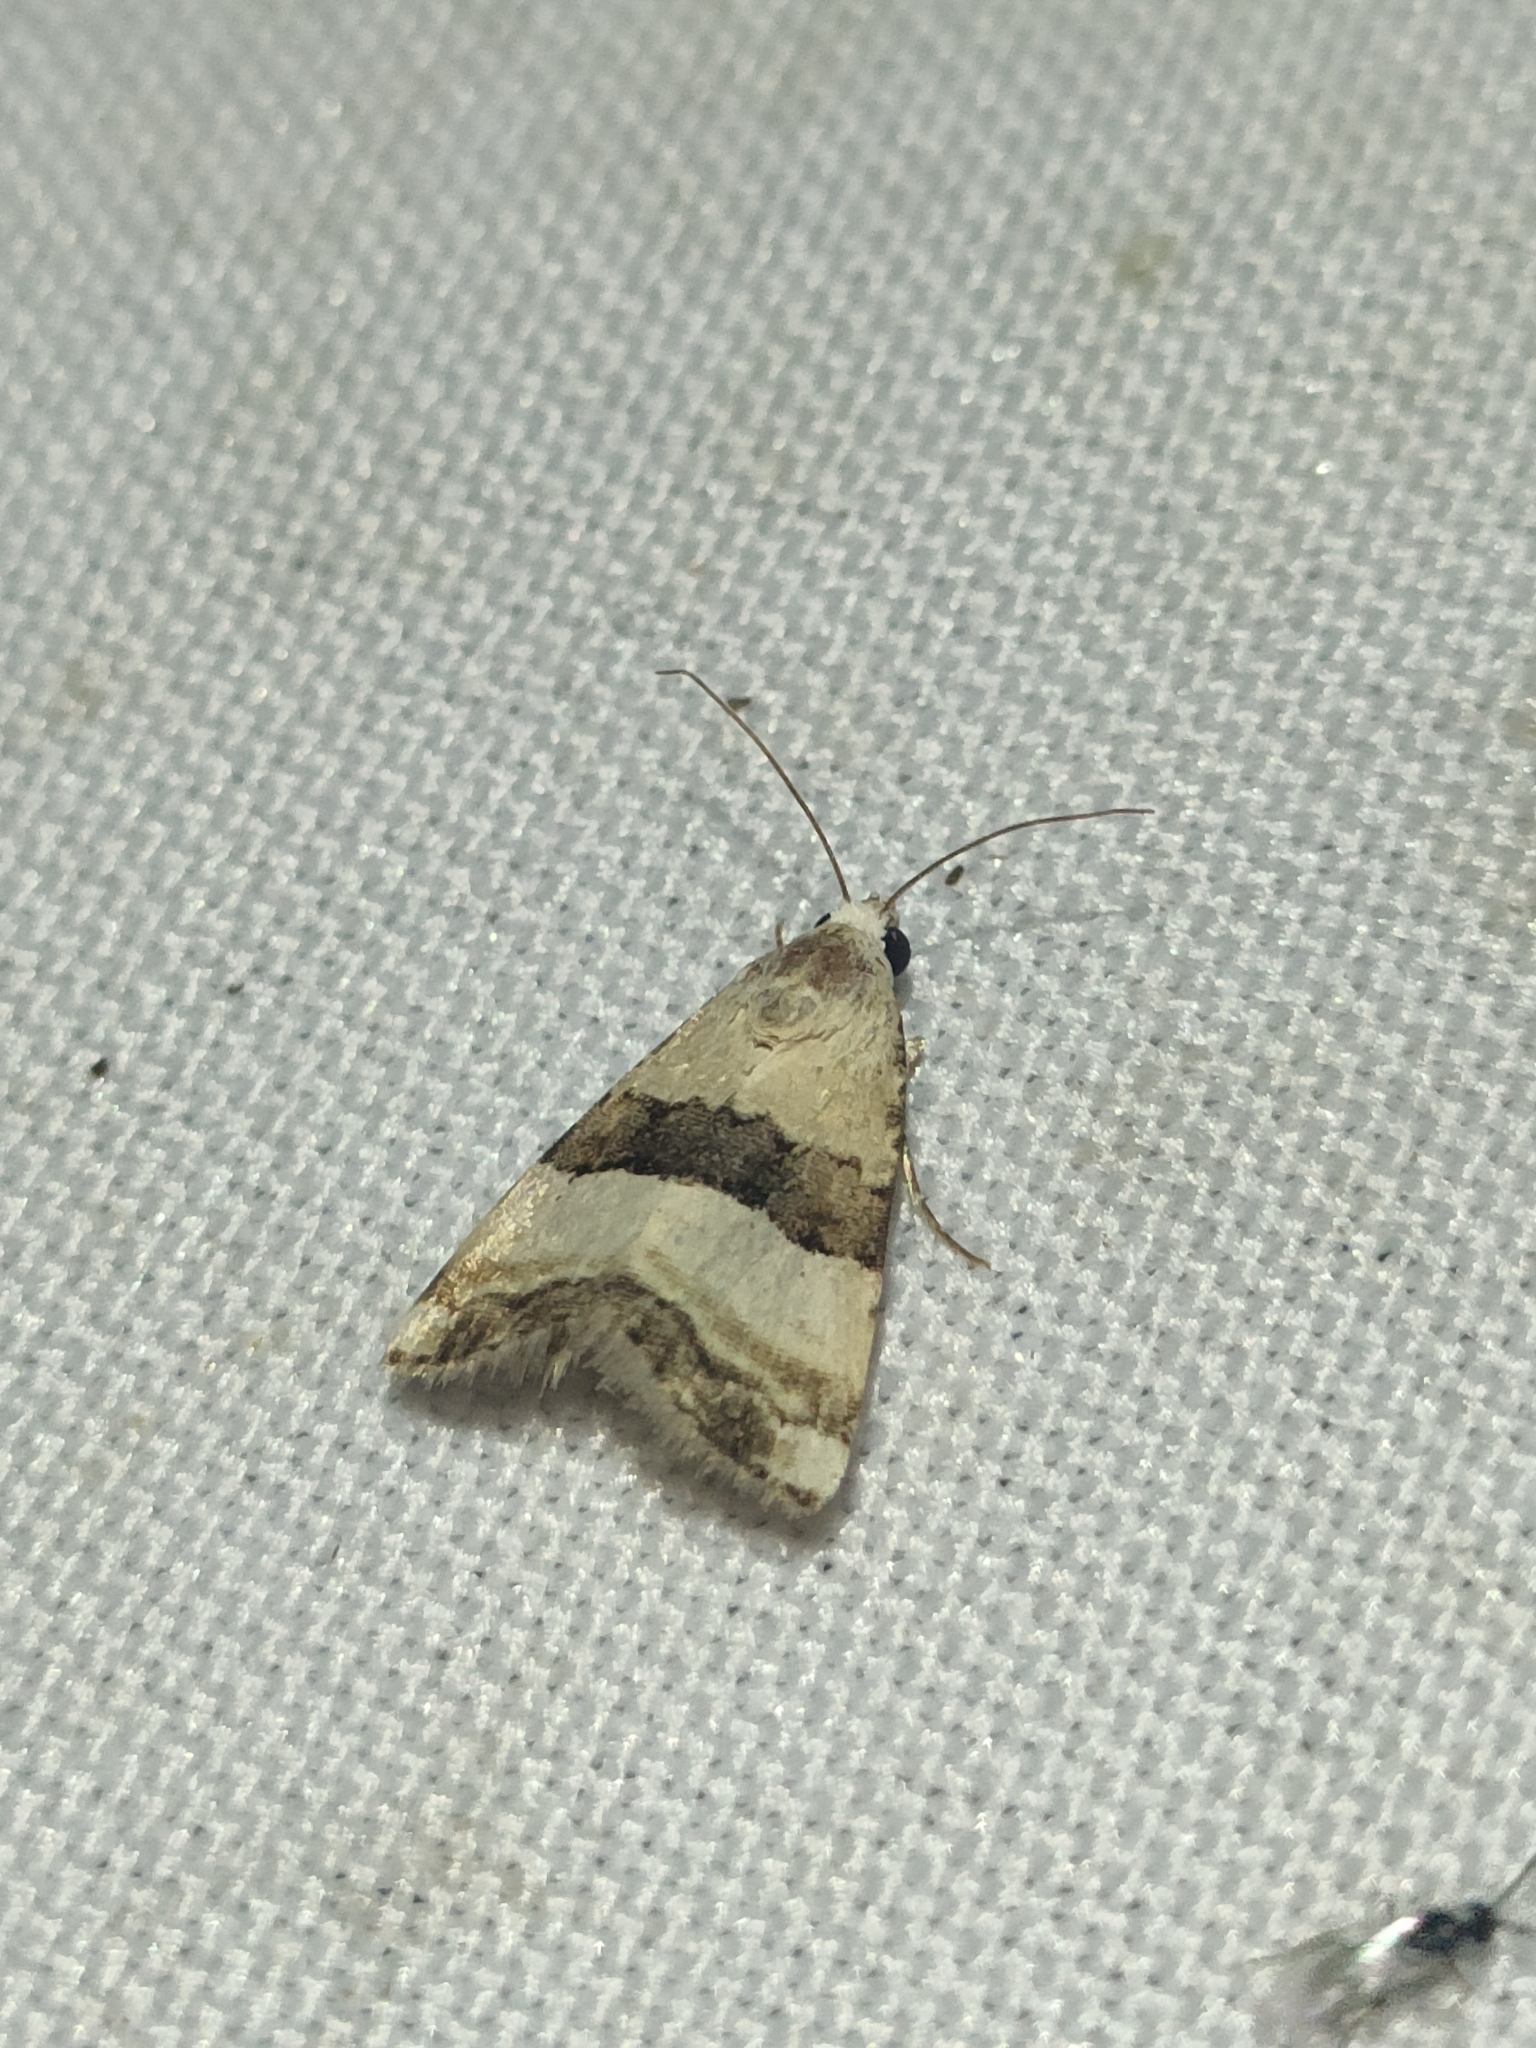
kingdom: Animalia
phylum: Arthropoda
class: Insecta
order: Lepidoptera
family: Noctuidae
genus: Pseudozarba
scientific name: Pseudozarba bipartita
